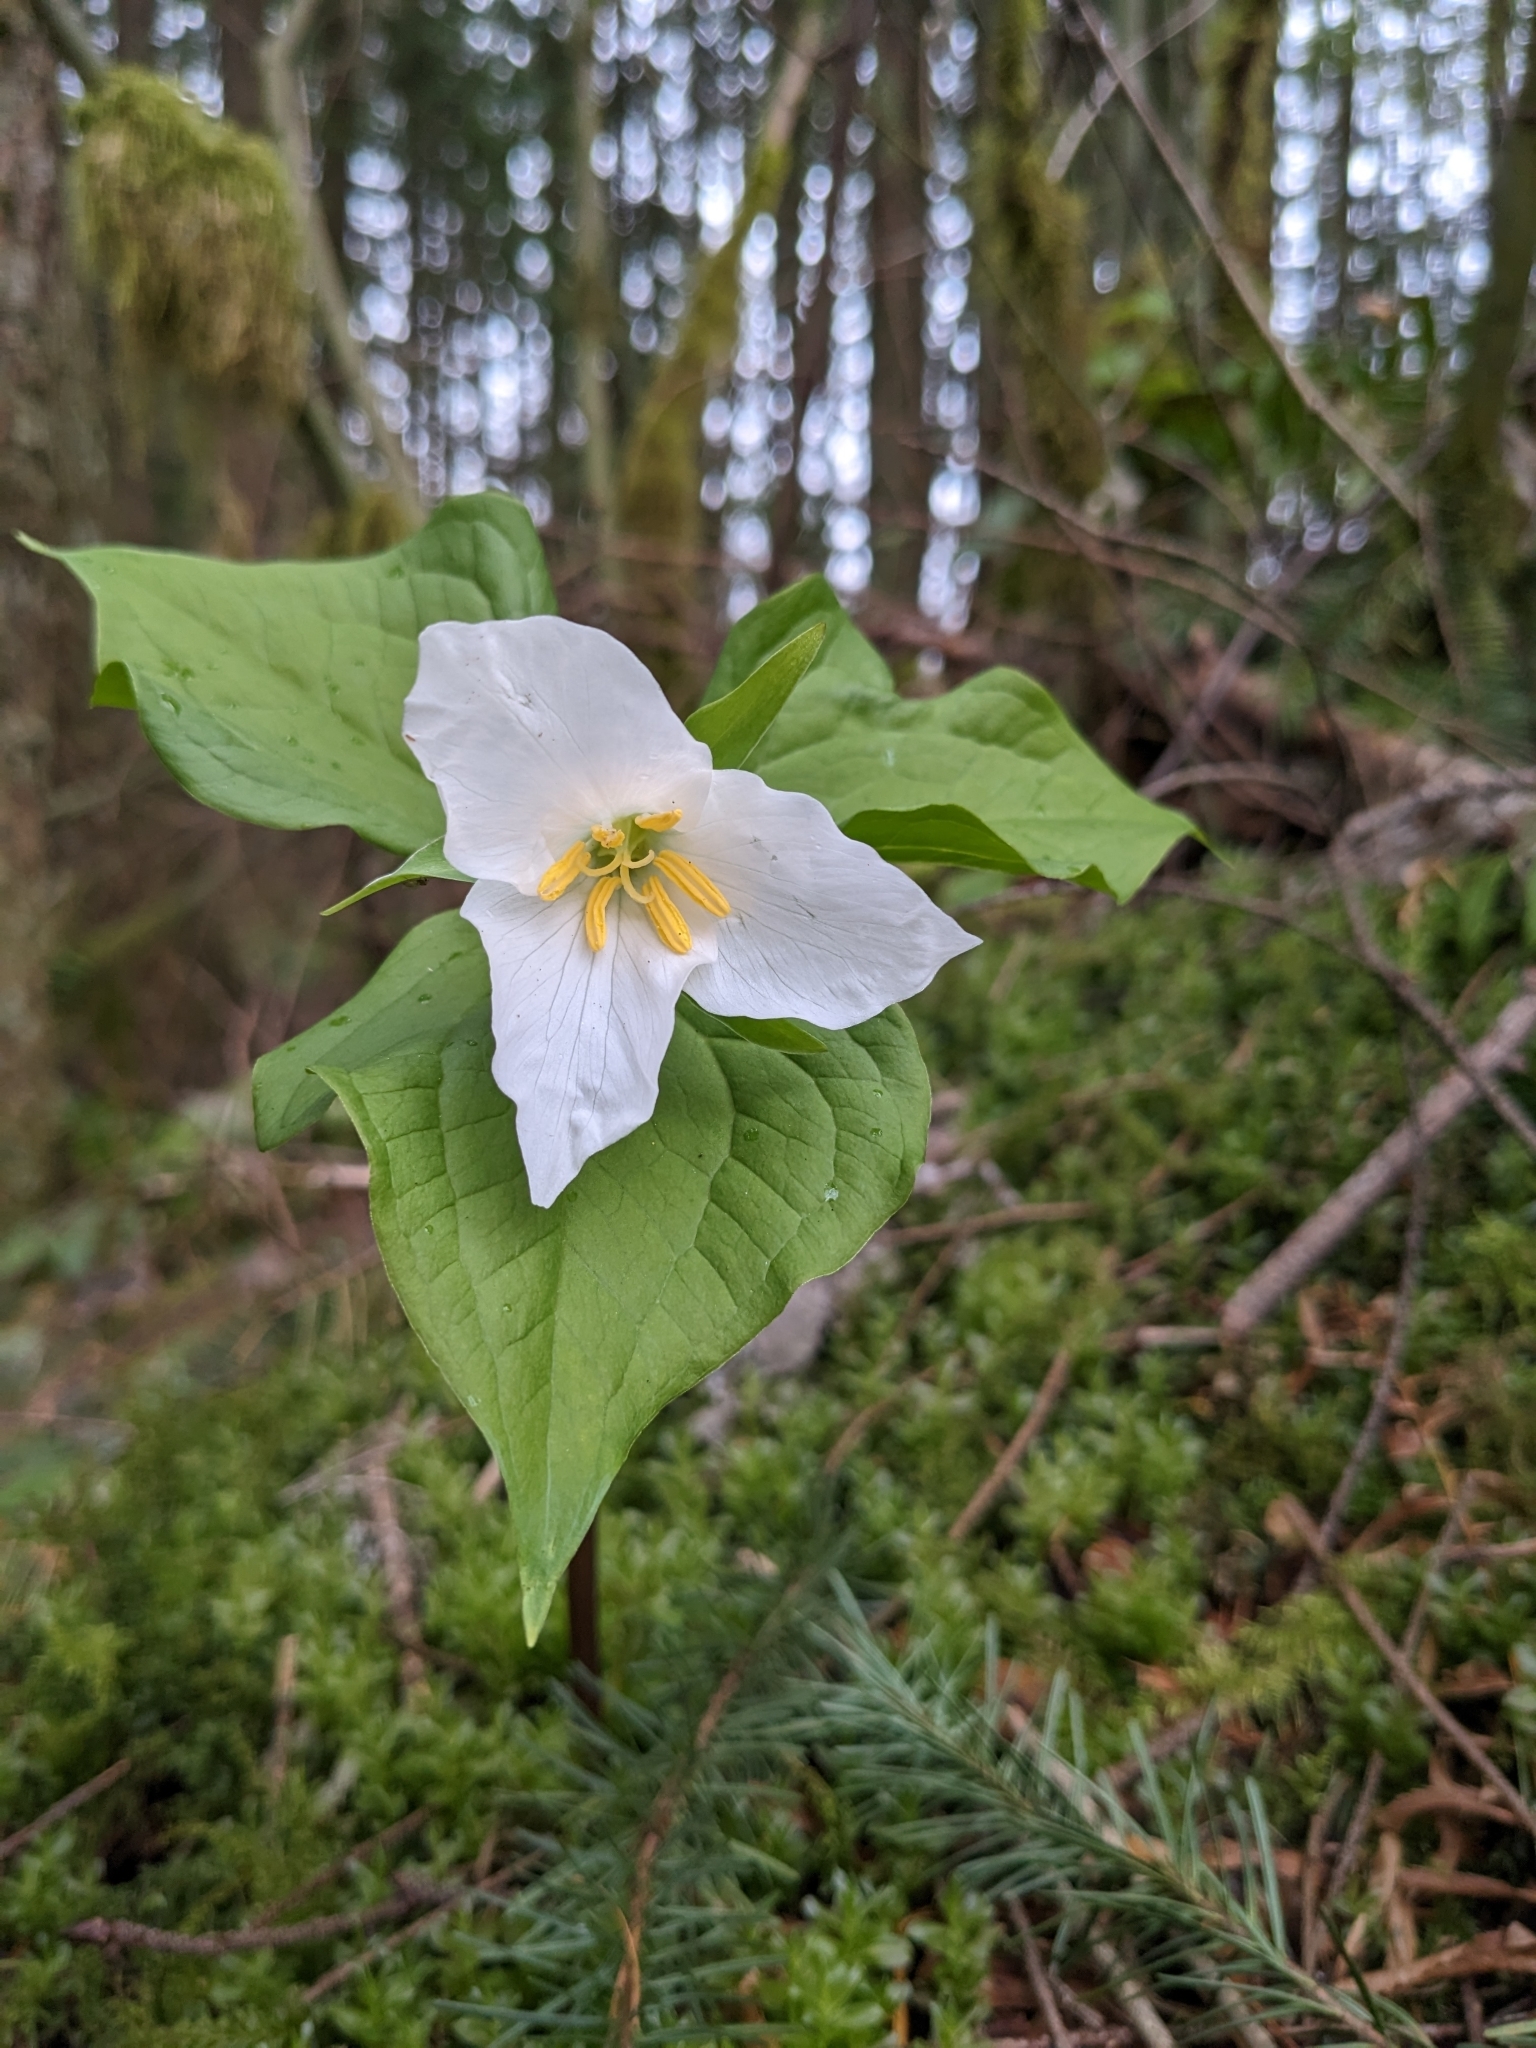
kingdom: Plantae
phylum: Tracheophyta
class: Liliopsida
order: Liliales
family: Melanthiaceae
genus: Trillium
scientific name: Trillium ovatum
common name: Pacific trillium
